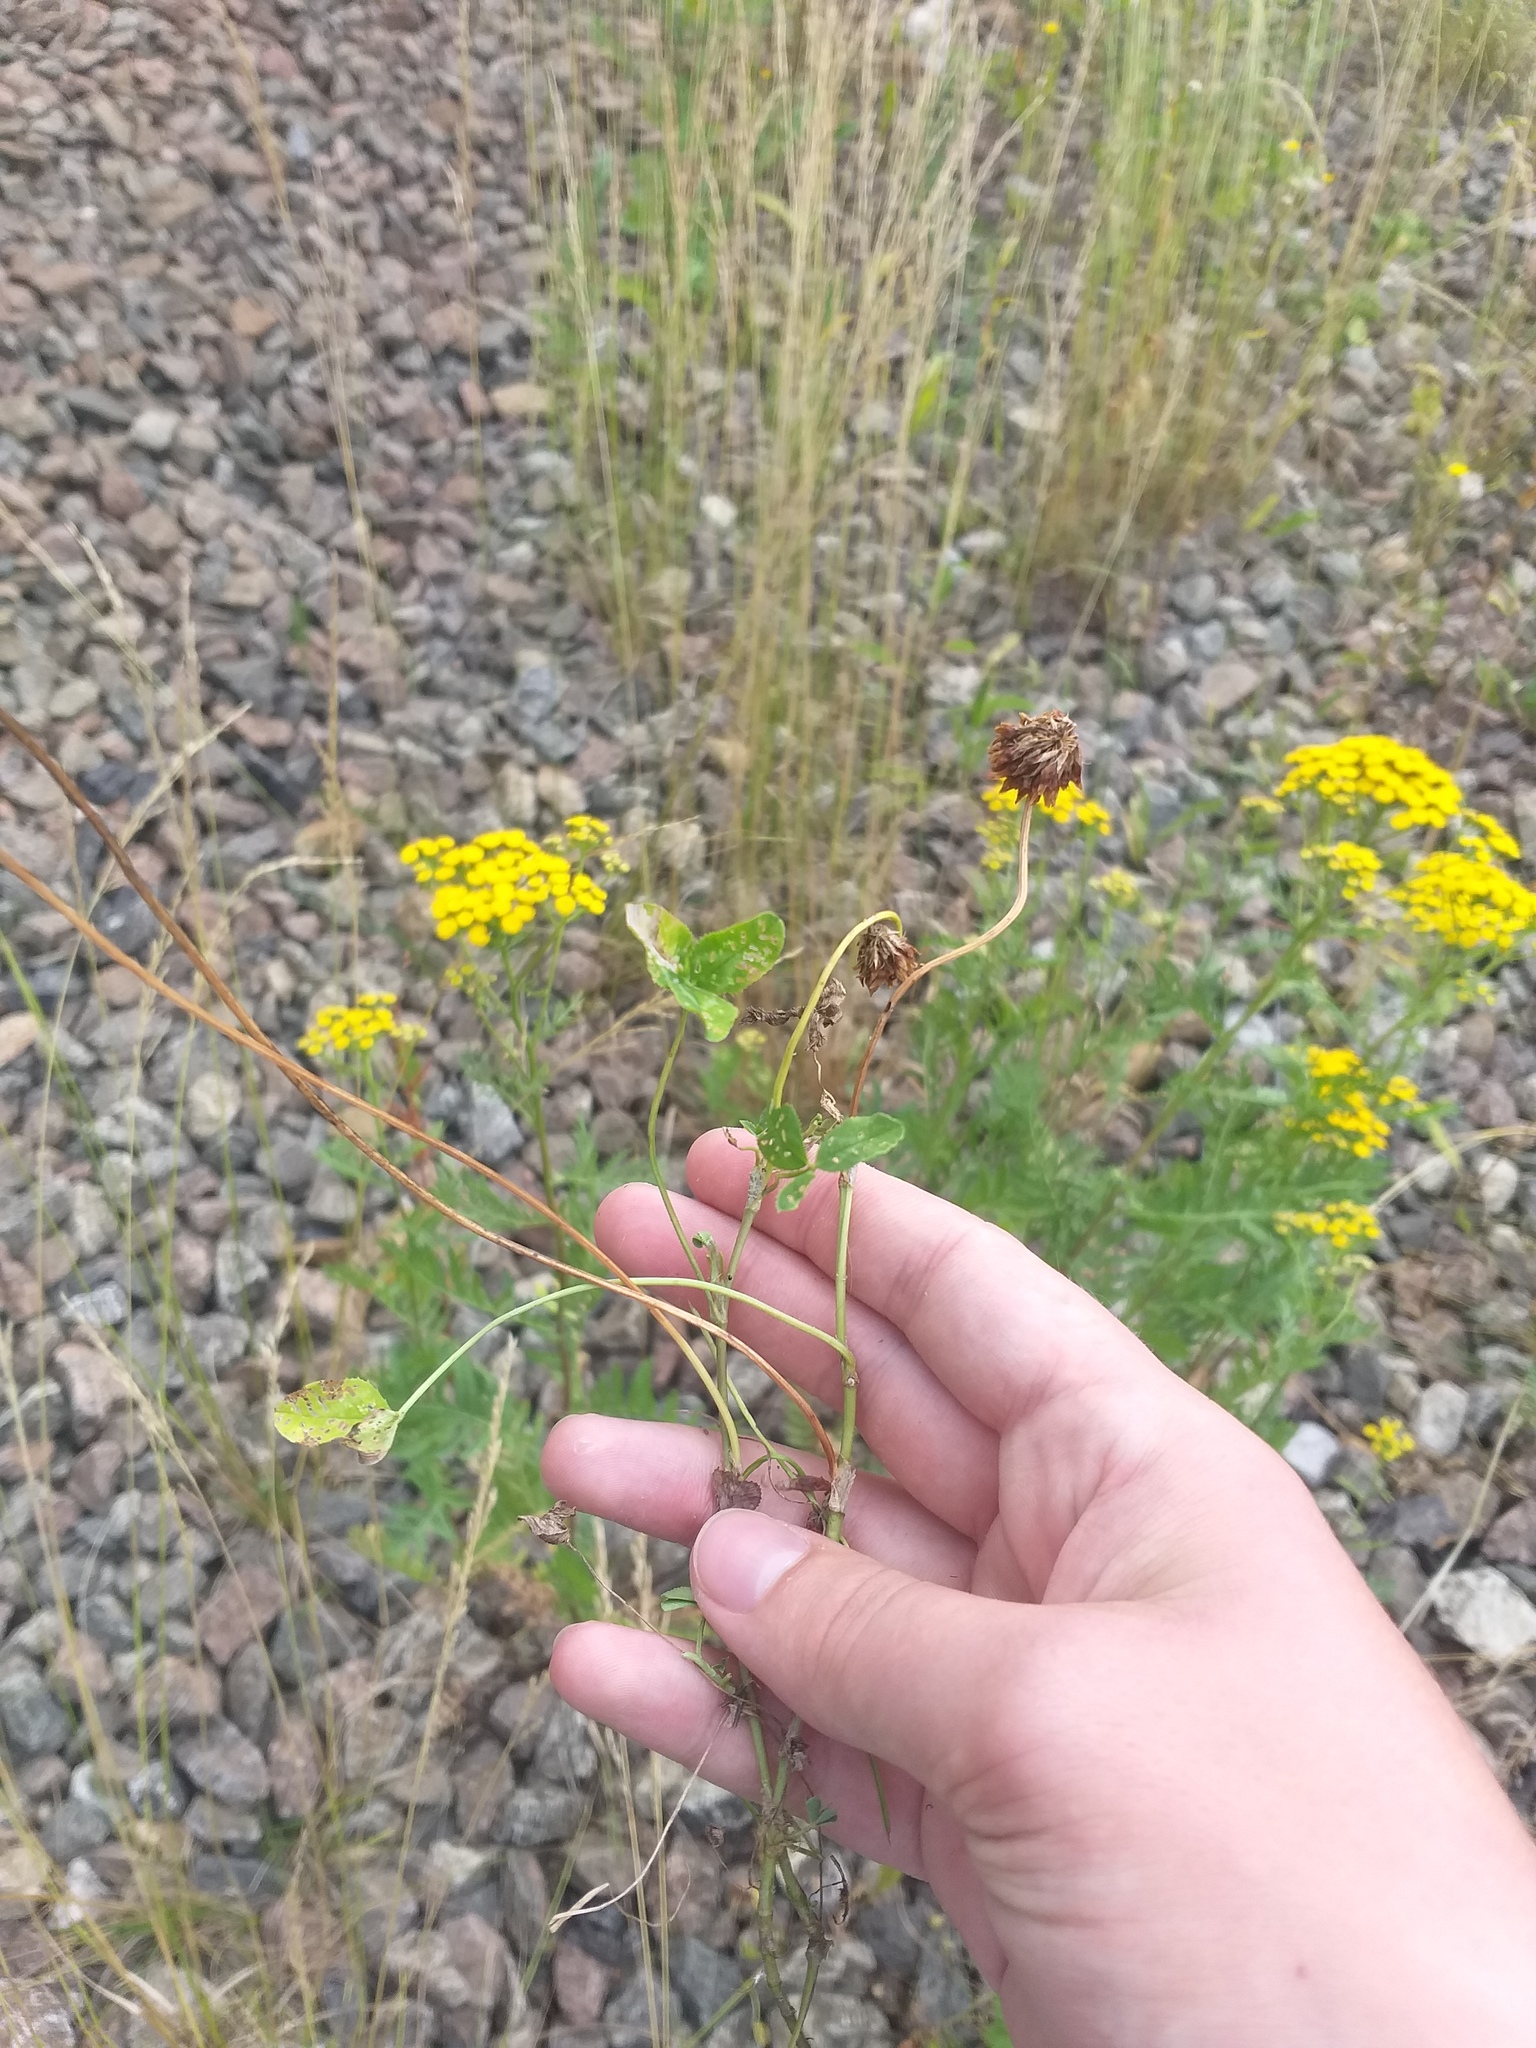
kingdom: Plantae
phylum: Tracheophyta
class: Magnoliopsida
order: Fabales
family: Fabaceae
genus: Trifolium
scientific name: Trifolium repens
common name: White clover
